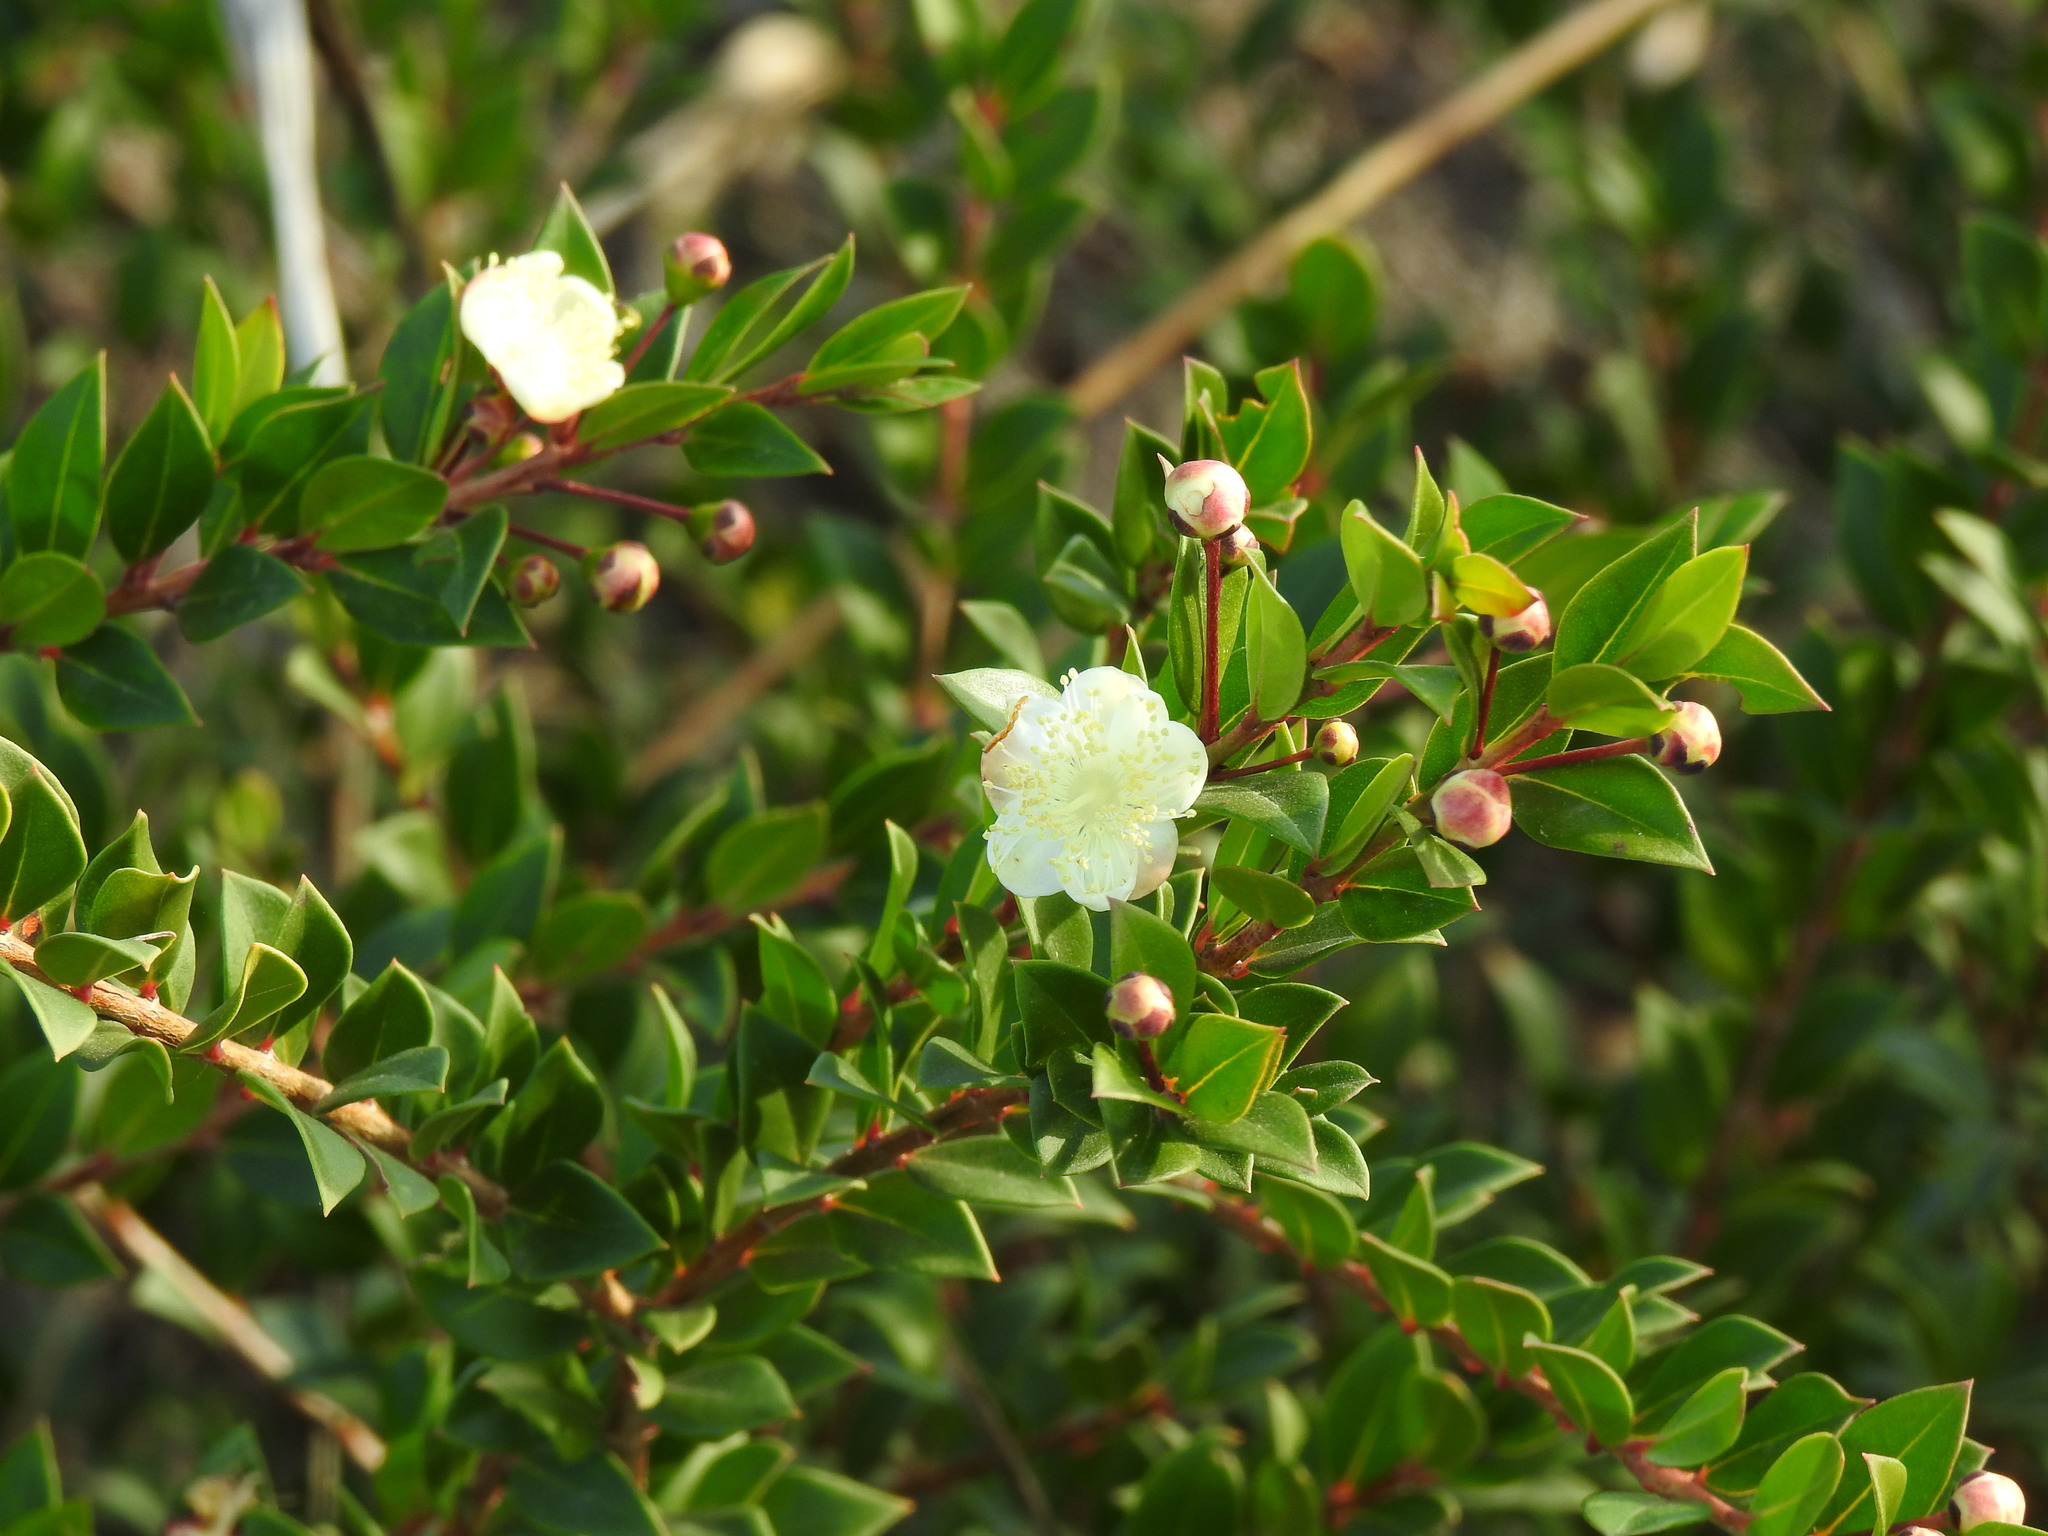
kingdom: Plantae
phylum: Tracheophyta
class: Magnoliopsida
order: Myrtales
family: Myrtaceae
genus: Myrtus
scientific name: Myrtus communis
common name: Myrtle
